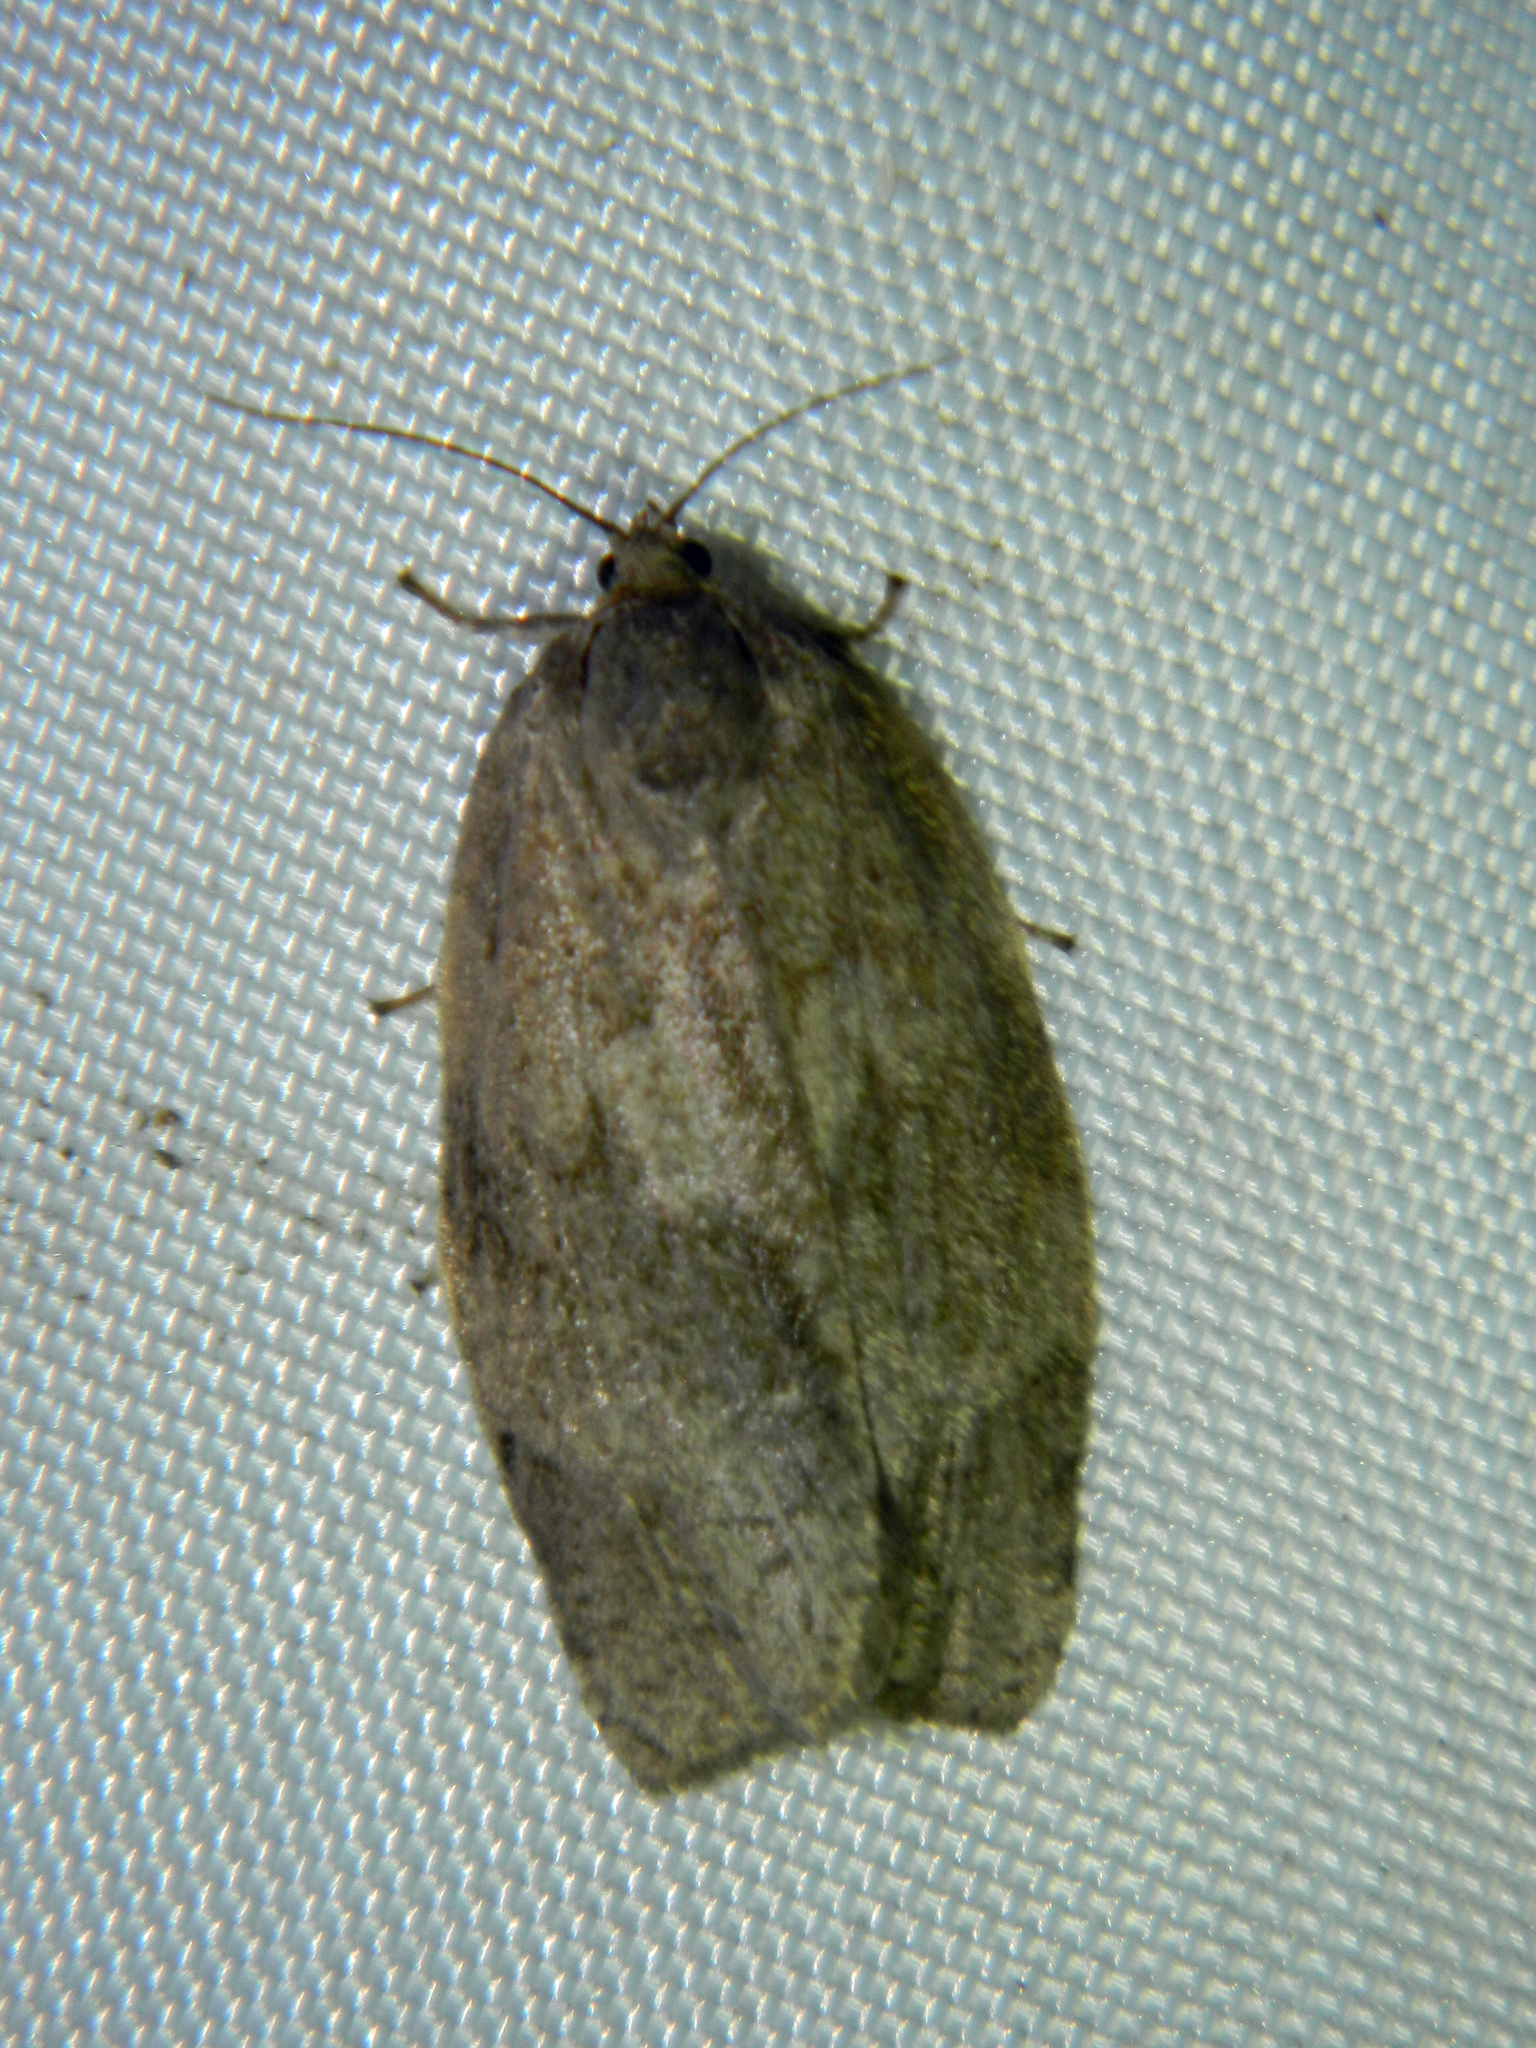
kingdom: Animalia
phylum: Arthropoda
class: Insecta
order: Lepidoptera
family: Tortricidae
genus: Choristoneura
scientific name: Choristoneura conflictana
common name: Large aspen tortrix
